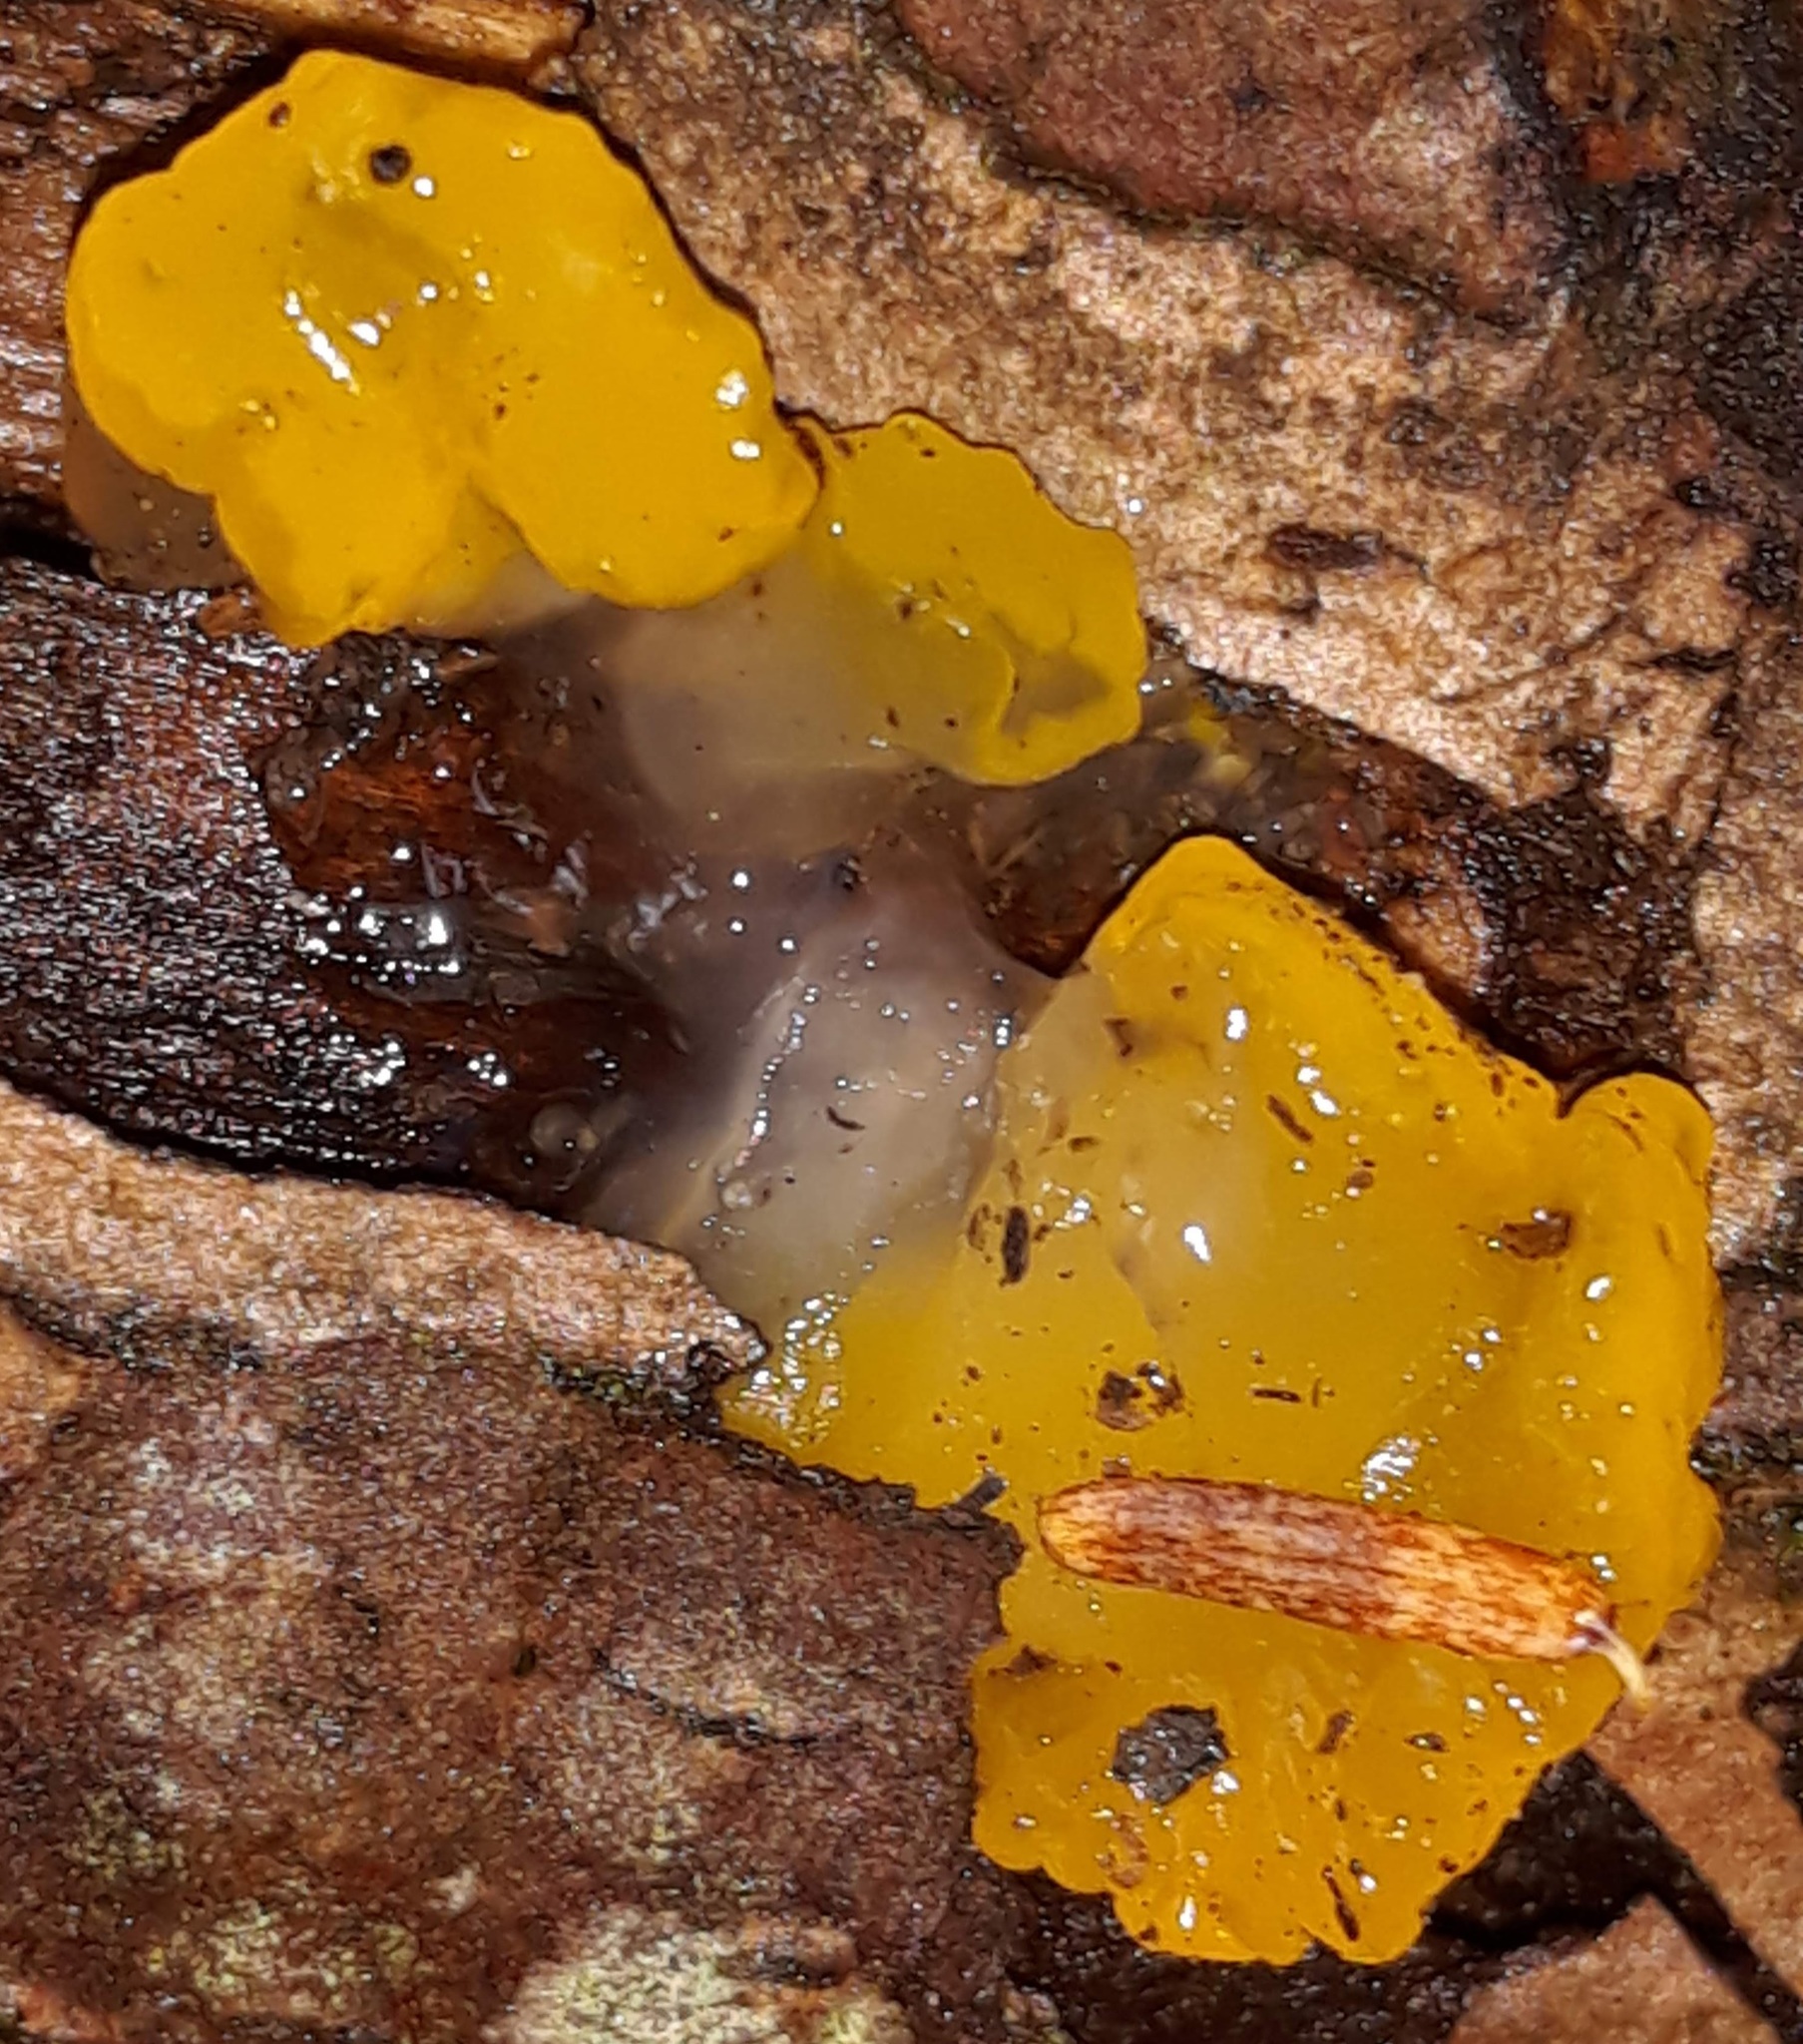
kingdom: Fungi
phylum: Basidiomycota
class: Dacrymycetes
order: Dacrymycetales
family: Dacrymycetaceae
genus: Dacrymyces
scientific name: Dacrymyces chrysospermus
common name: Orange jelly spot
